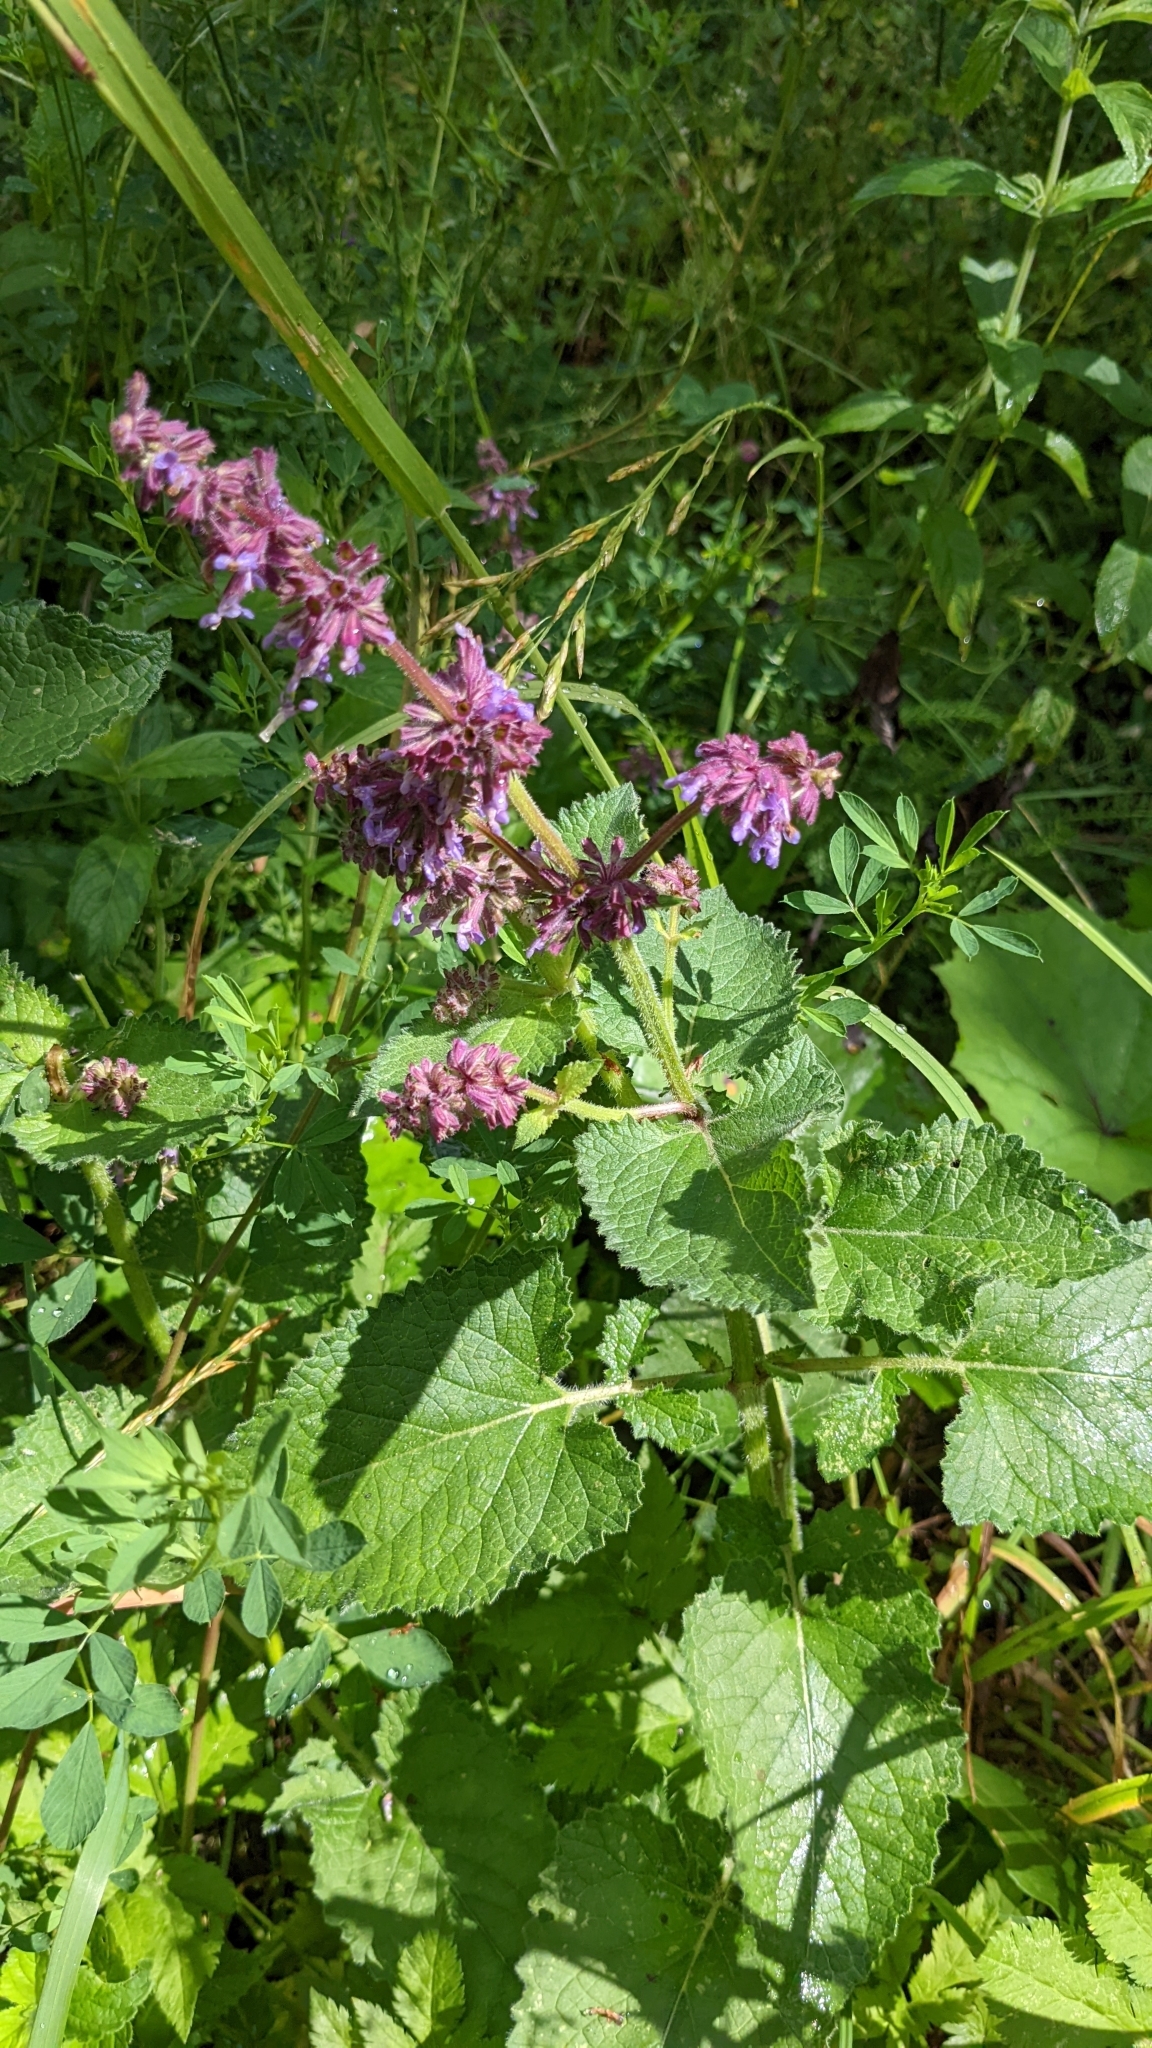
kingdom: Plantae
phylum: Tracheophyta
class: Magnoliopsida
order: Lamiales
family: Lamiaceae
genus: Salvia
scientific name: Salvia verticillata
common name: Whorled clary
